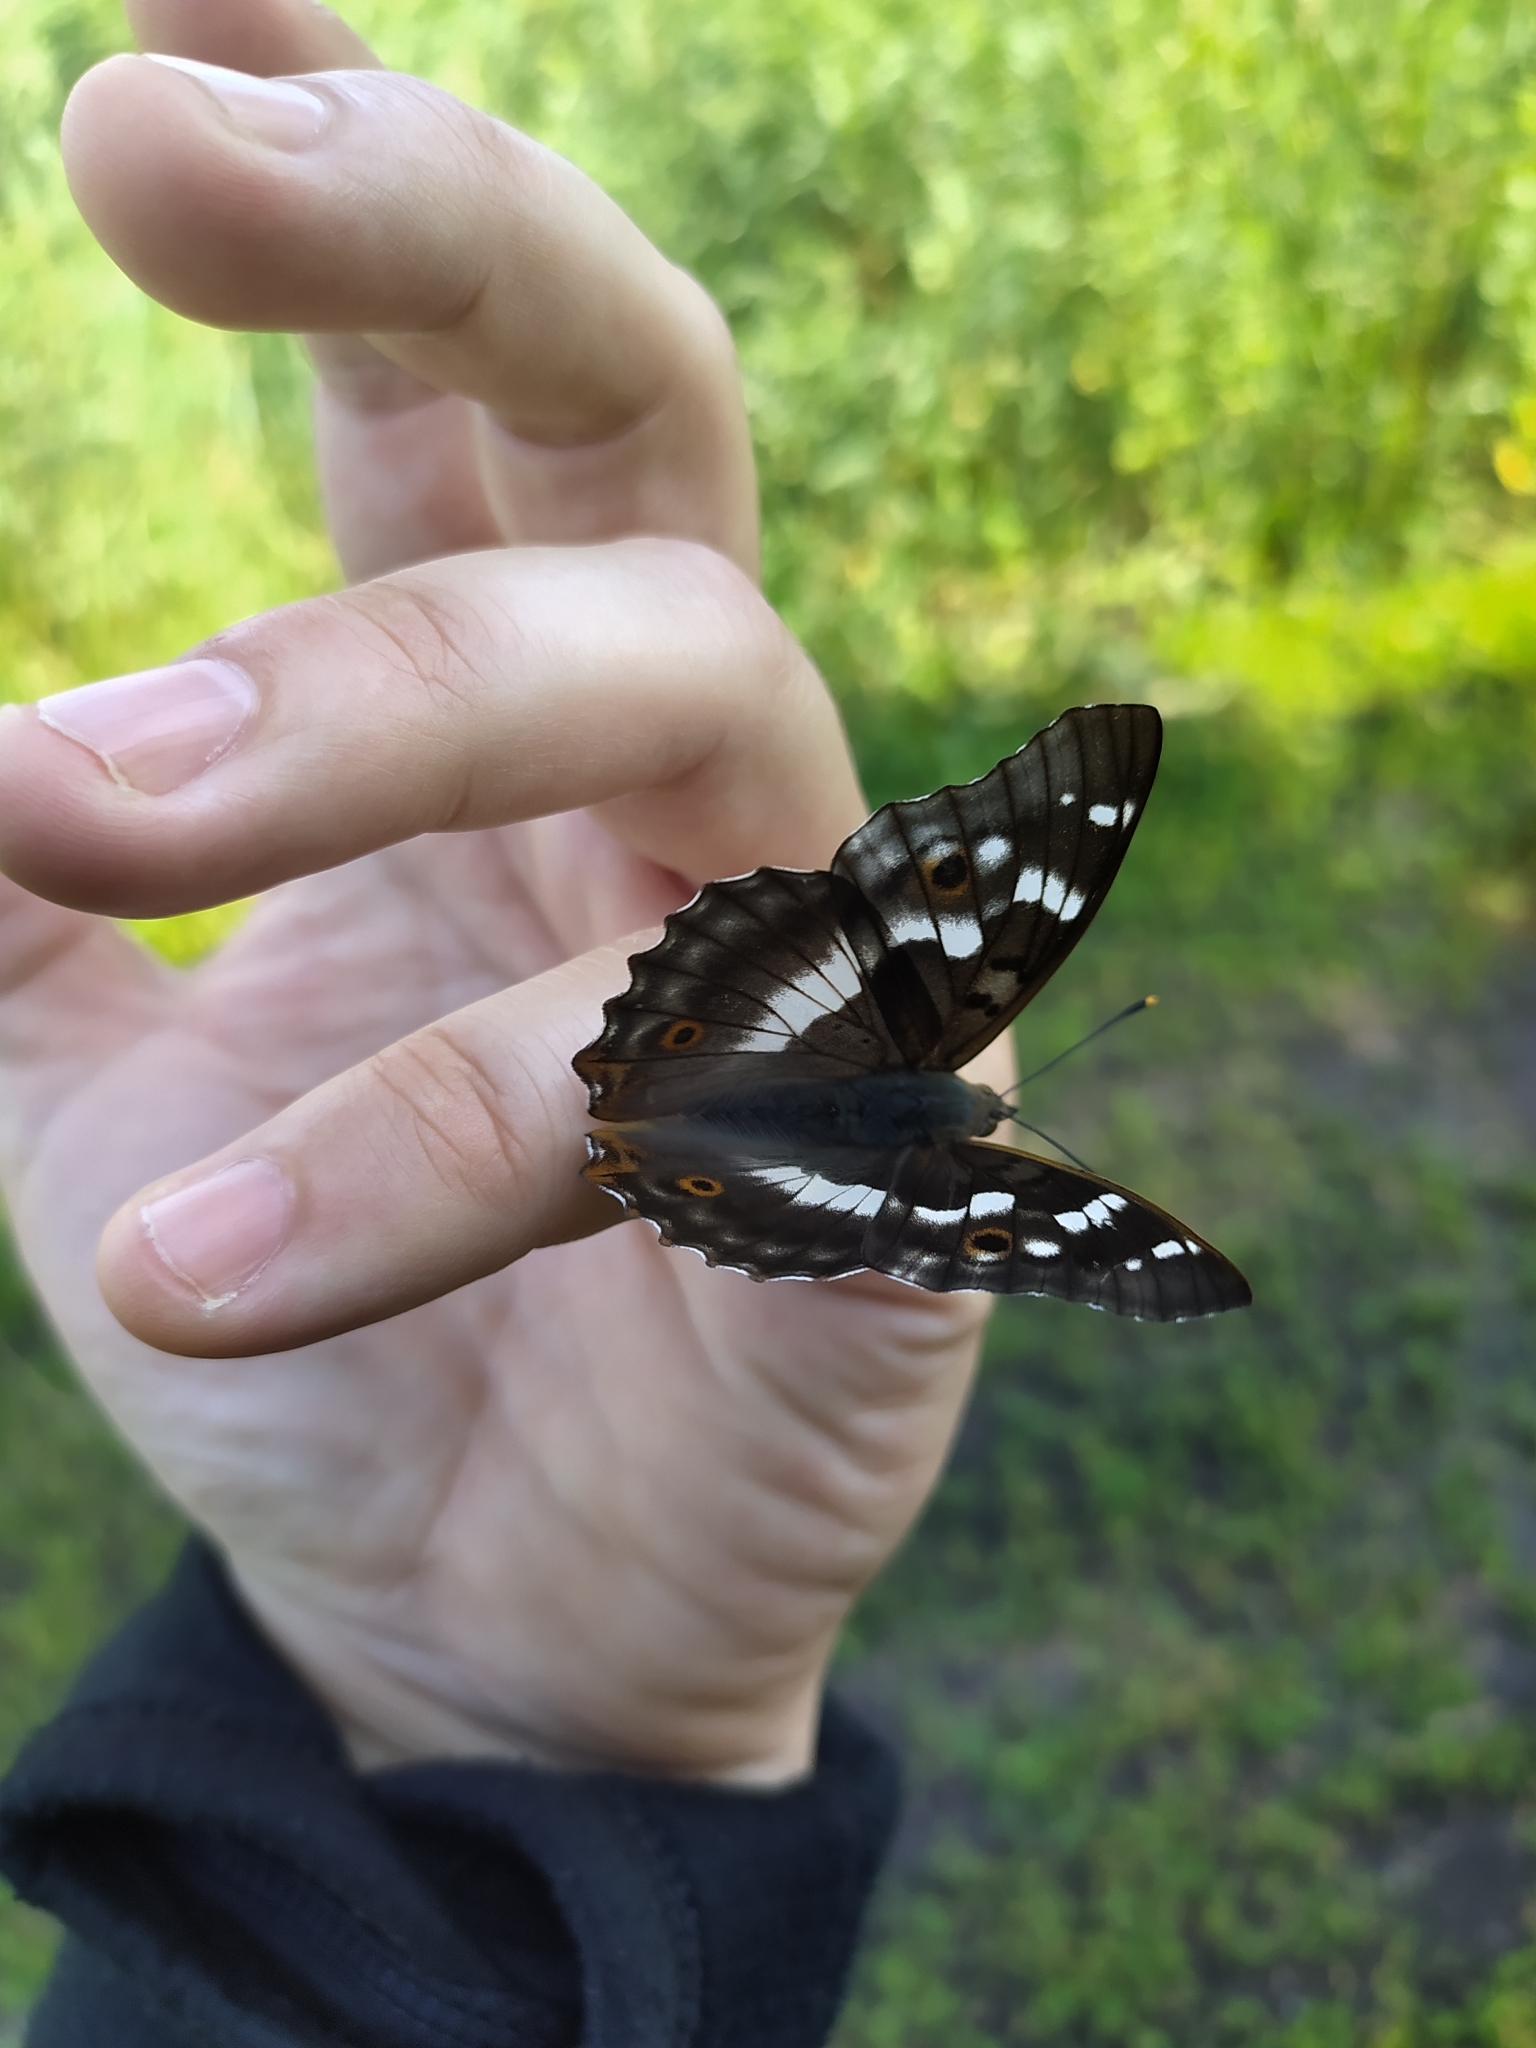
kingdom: Animalia
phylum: Arthropoda
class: Insecta
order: Lepidoptera
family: Nymphalidae
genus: Apatura
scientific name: Apatura ilia
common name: Lesser purple emperor
